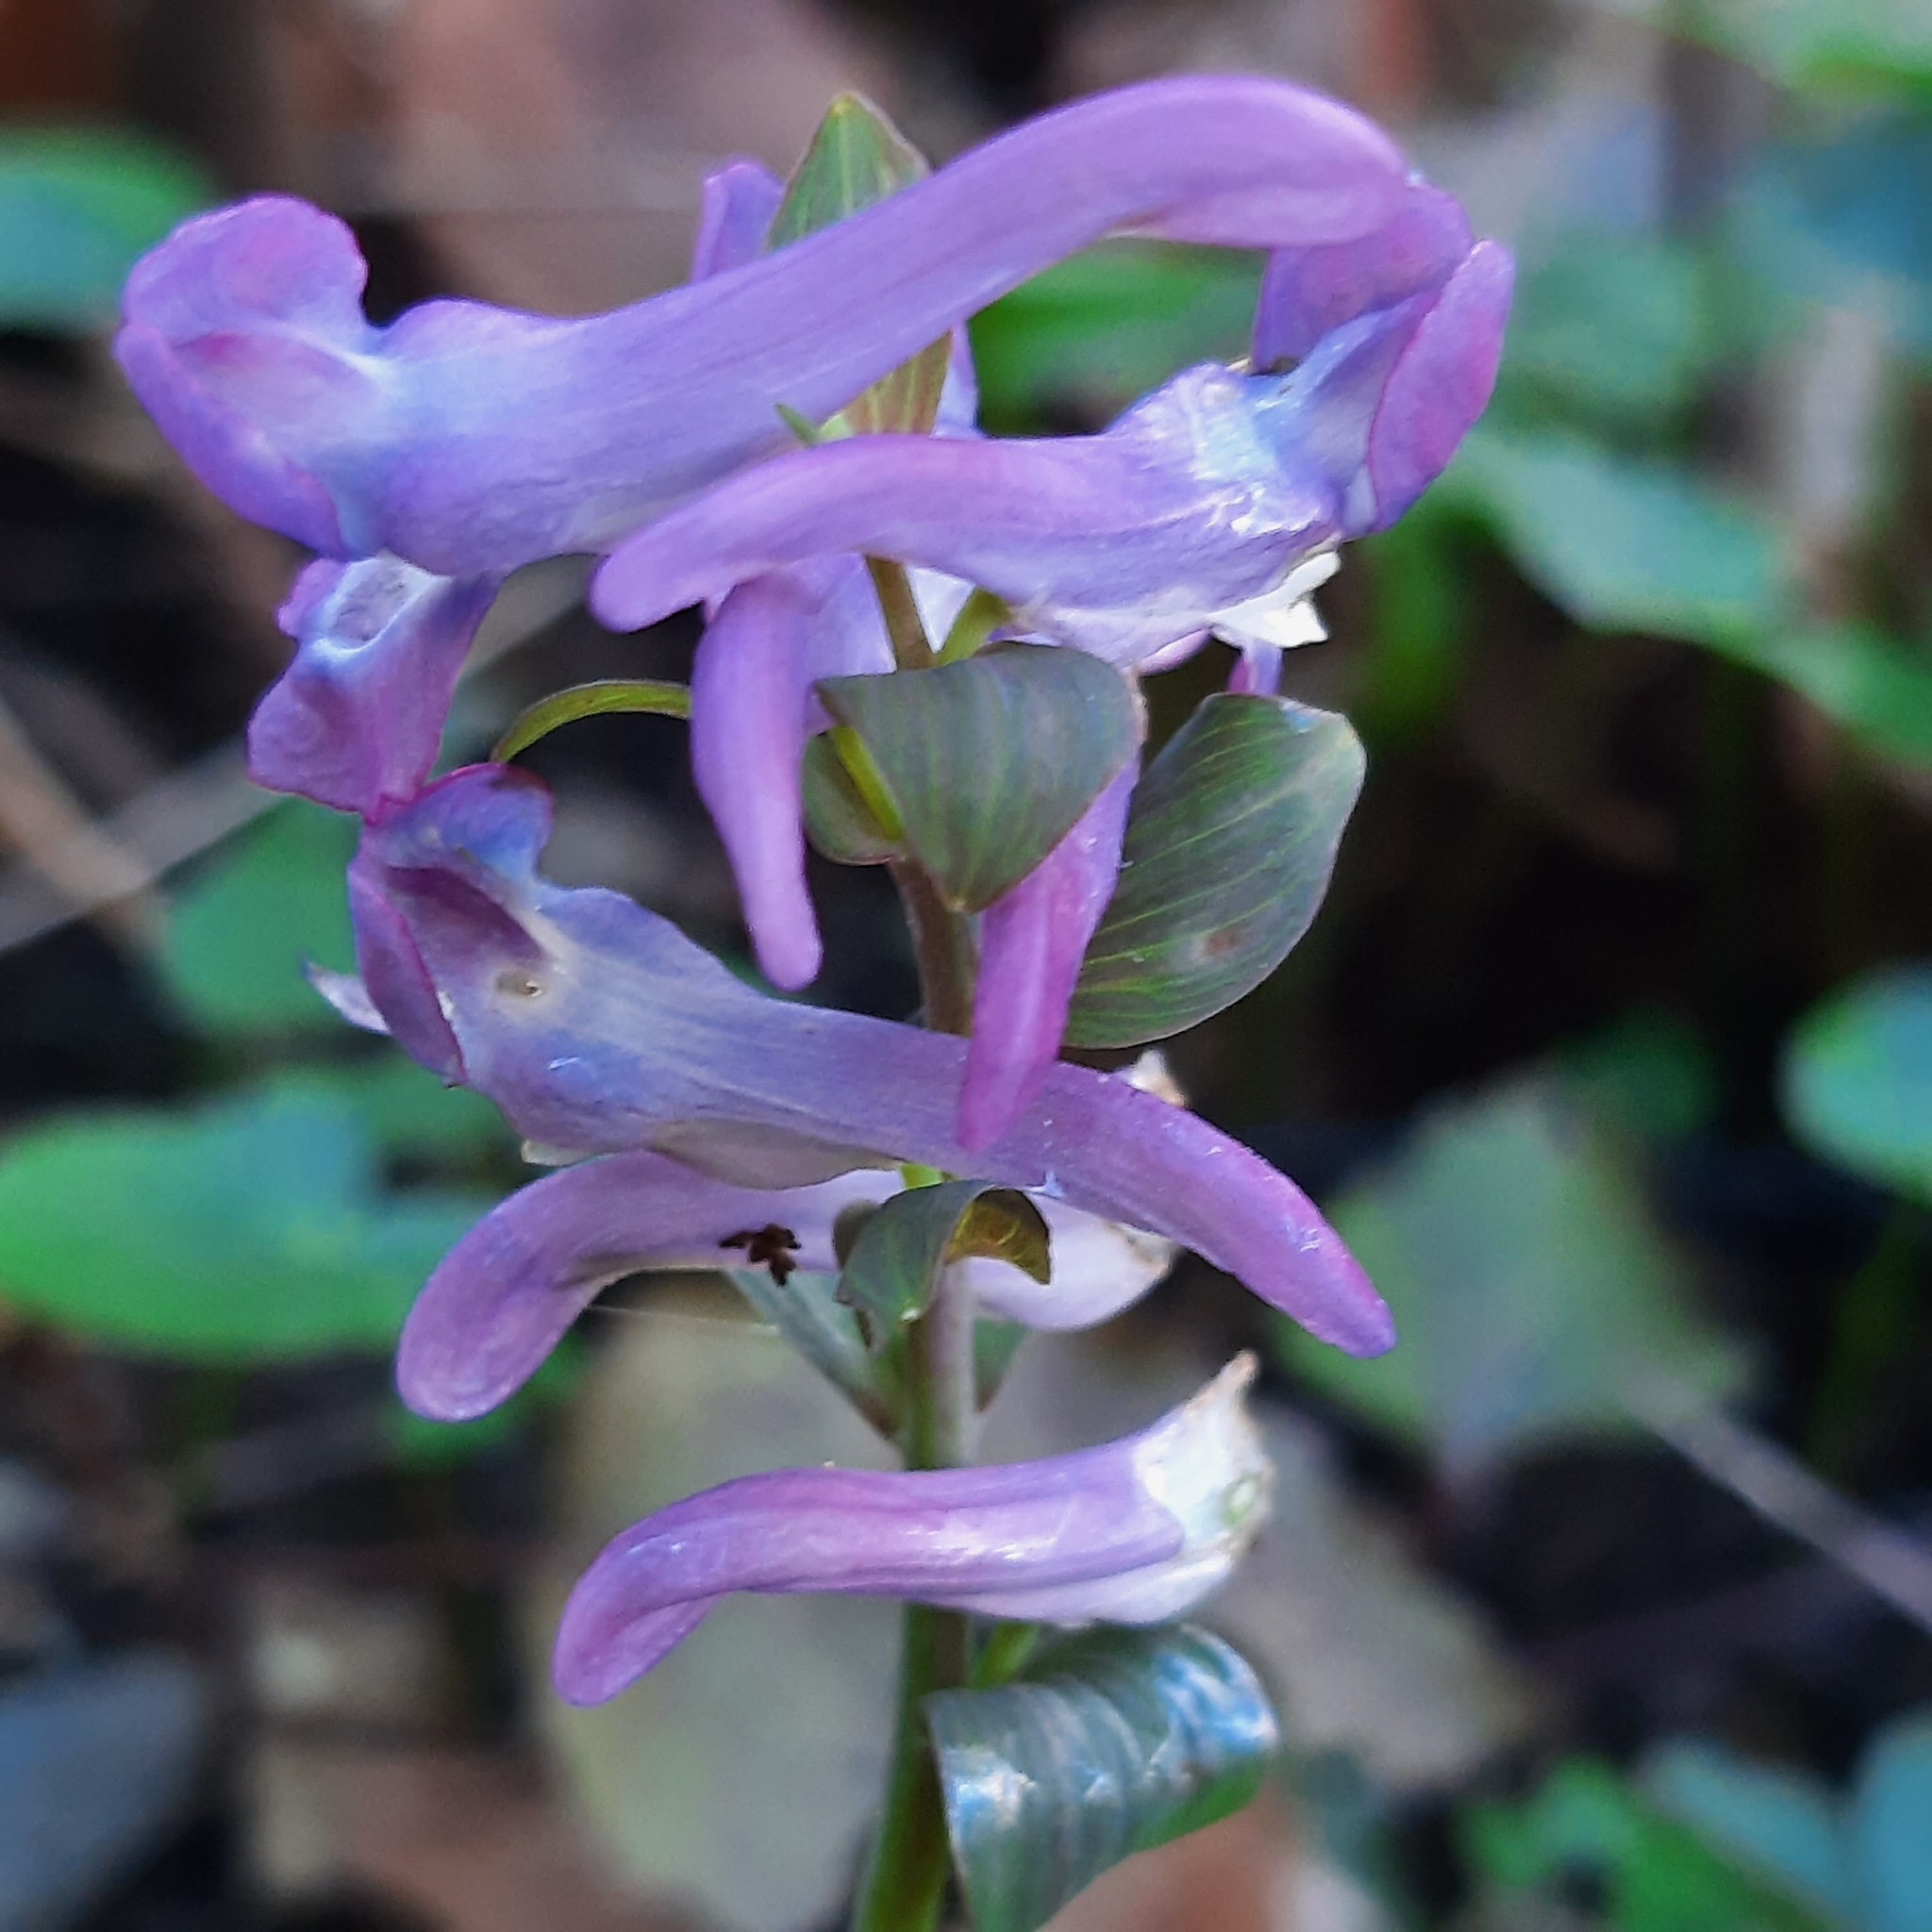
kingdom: Plantae
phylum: Tracheophyta
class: Magnoliopsida
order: Ranunculales
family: Papaveraceae
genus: Corydalis
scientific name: Corydalis cava
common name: Hollowroot
